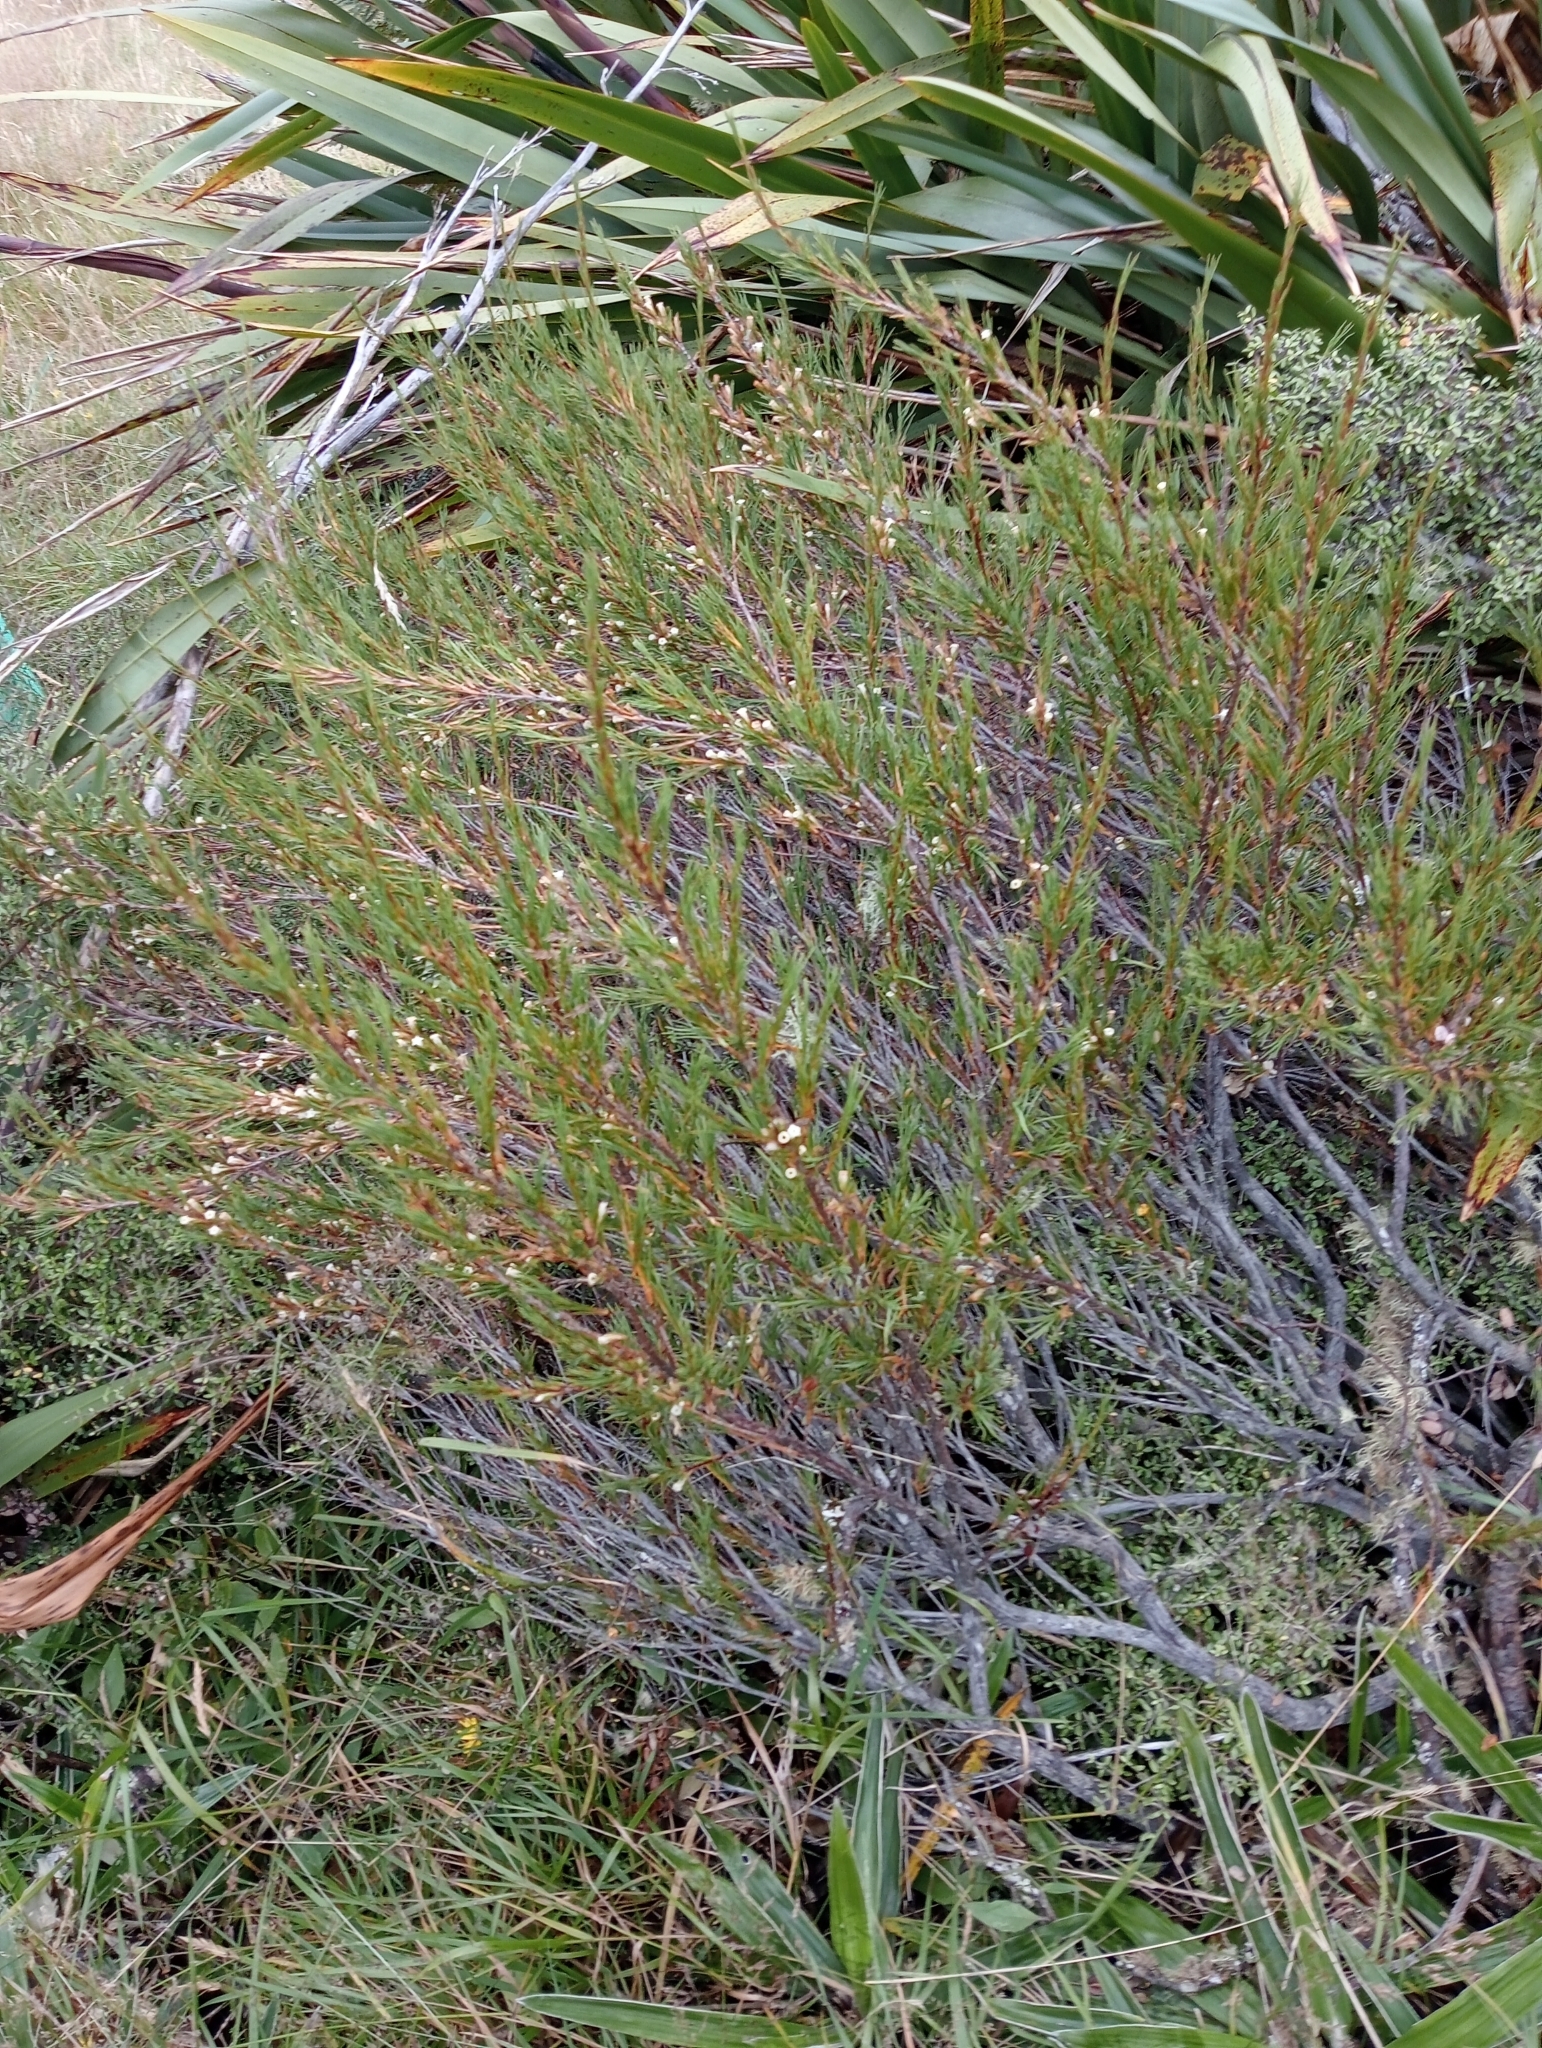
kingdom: Plantae
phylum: Tracheophyta
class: Magnoliopsida
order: Ericales
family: Ericaceae
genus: Dracophyllum
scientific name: Dracophyllum rosmarinifolium
